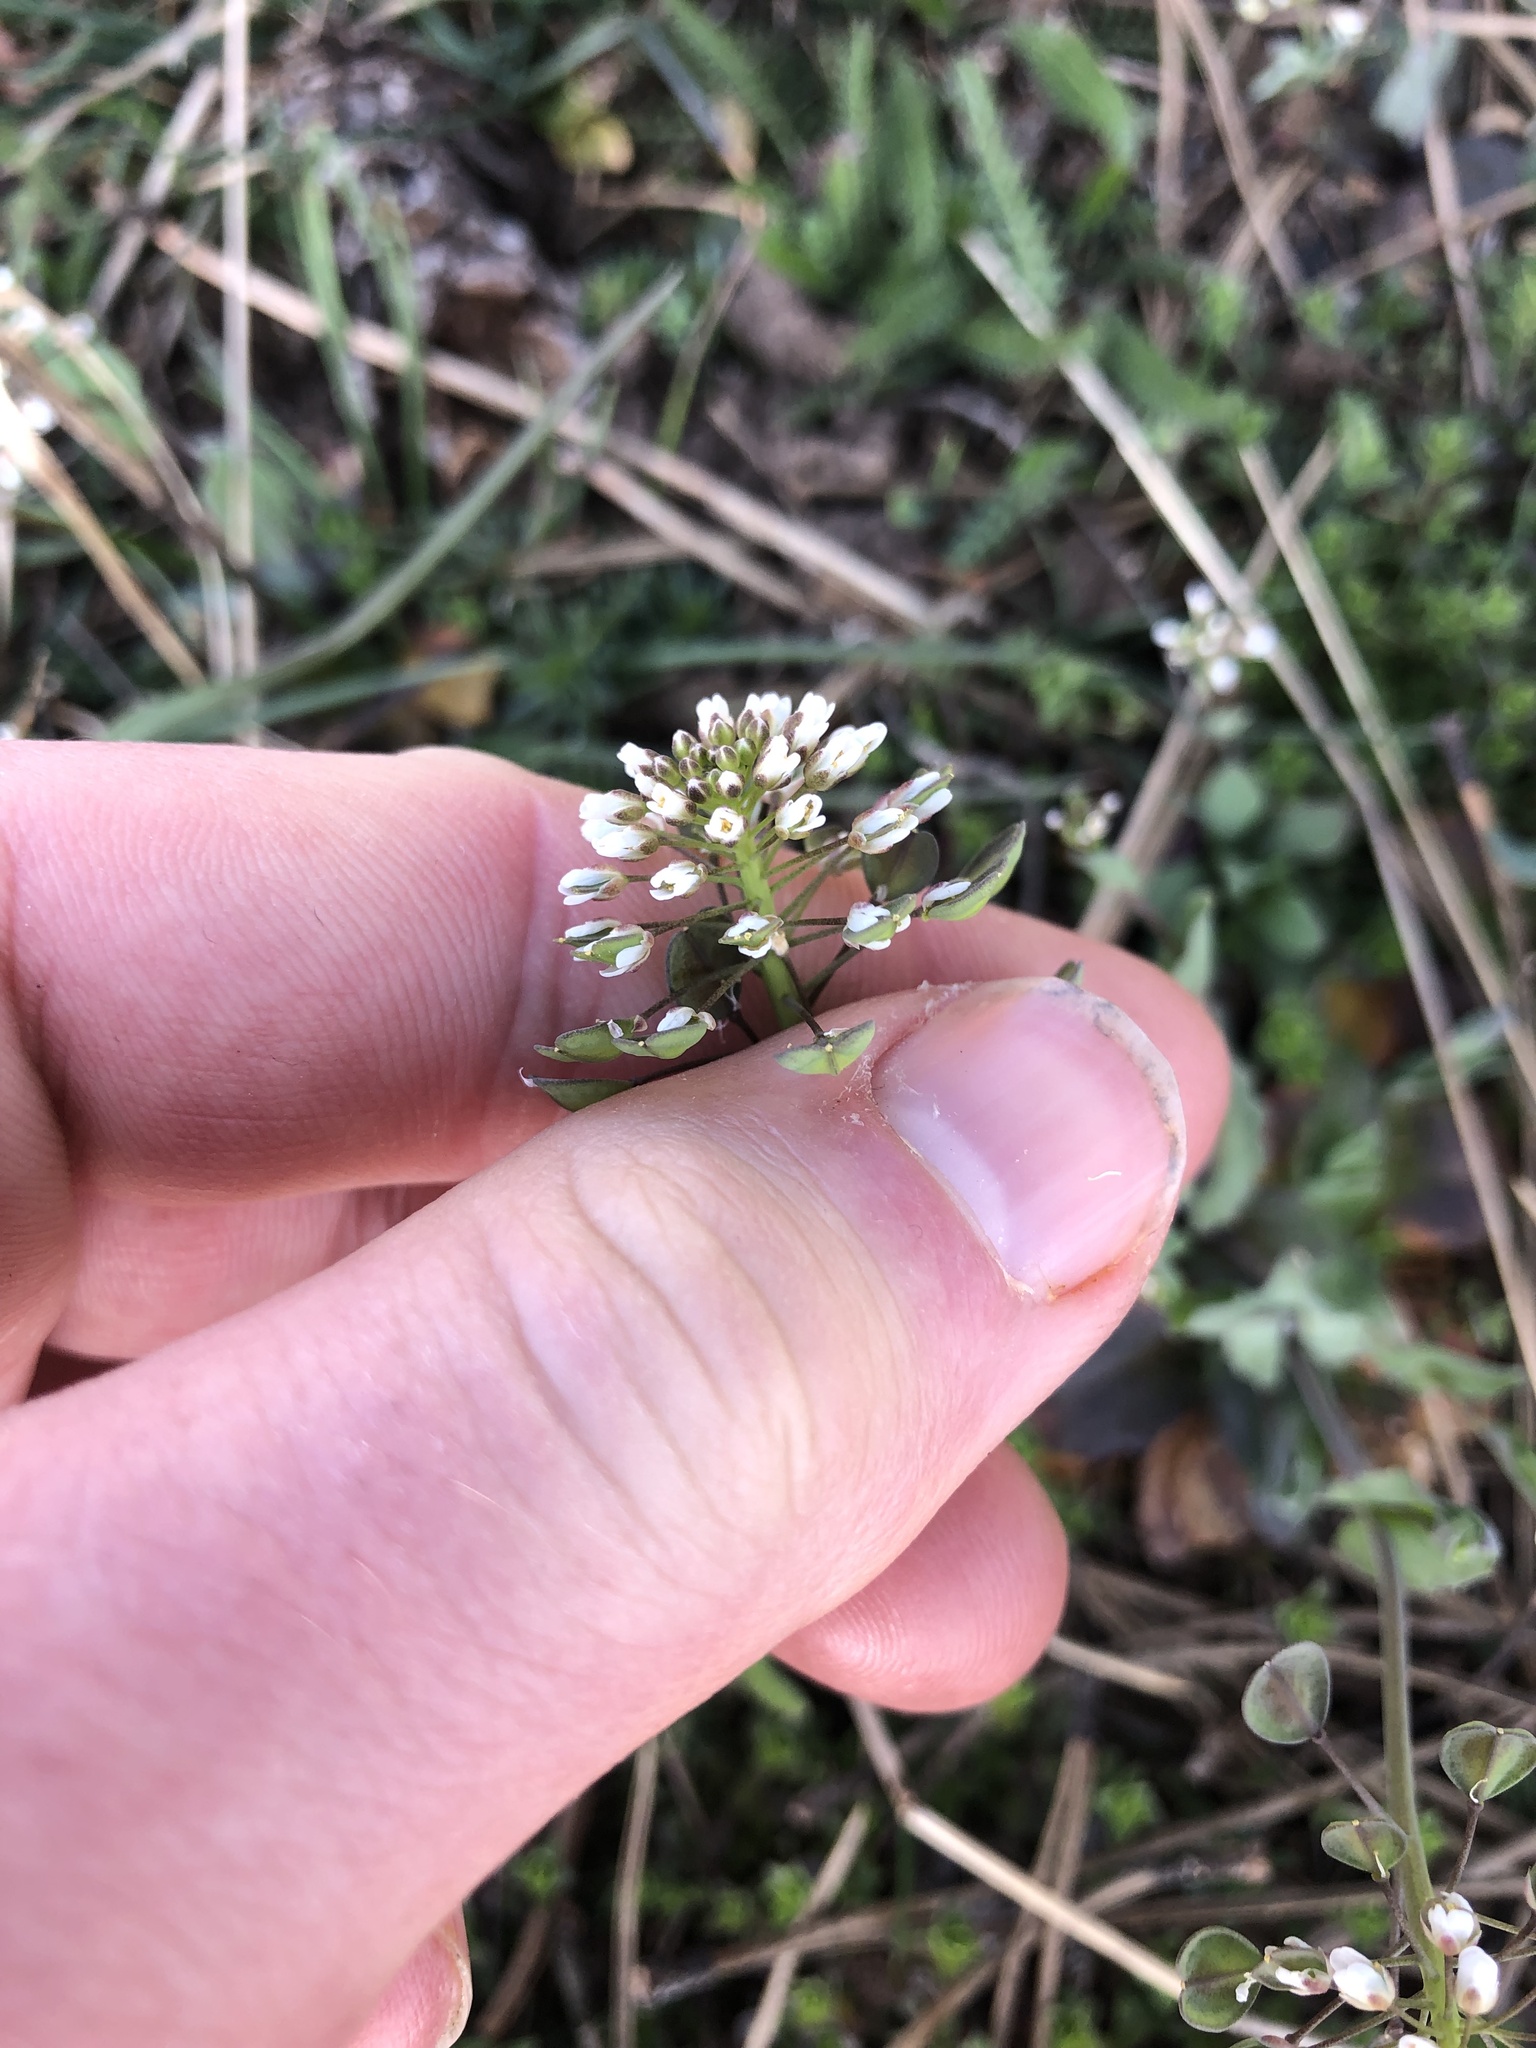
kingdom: Plantae
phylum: Tracheophyta
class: Magnoliopsida
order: Brassicales
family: Brassicaceae
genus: Noccaea
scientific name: Noccaea perfoliata
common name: Perfoliate pennycress
